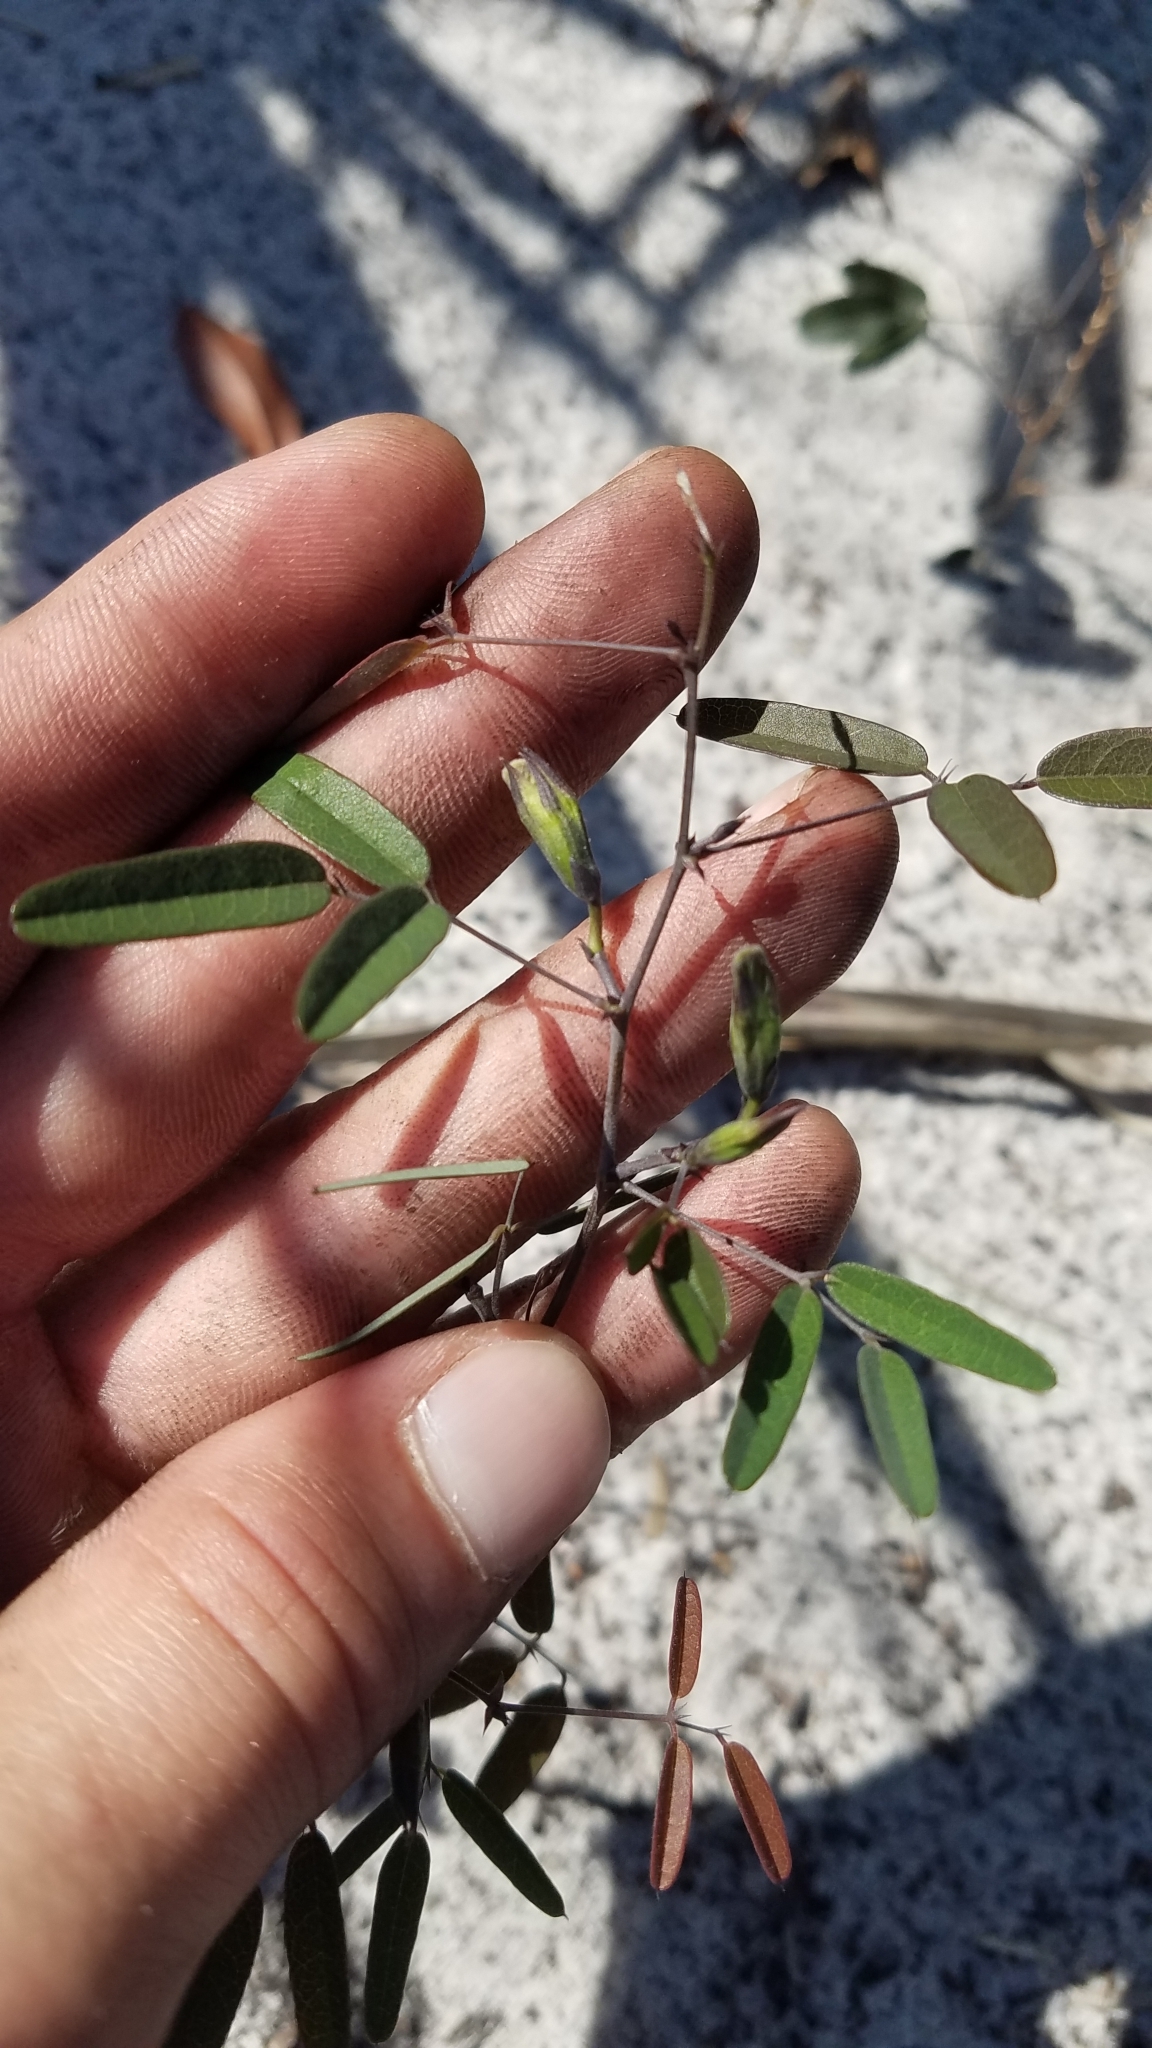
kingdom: Plantae
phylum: Tracheophyta
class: Magnoliopsida
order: Fabales
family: Fabaceae
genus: Clitoria
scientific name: Clitoria fragrans
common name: Pigeon-wings
